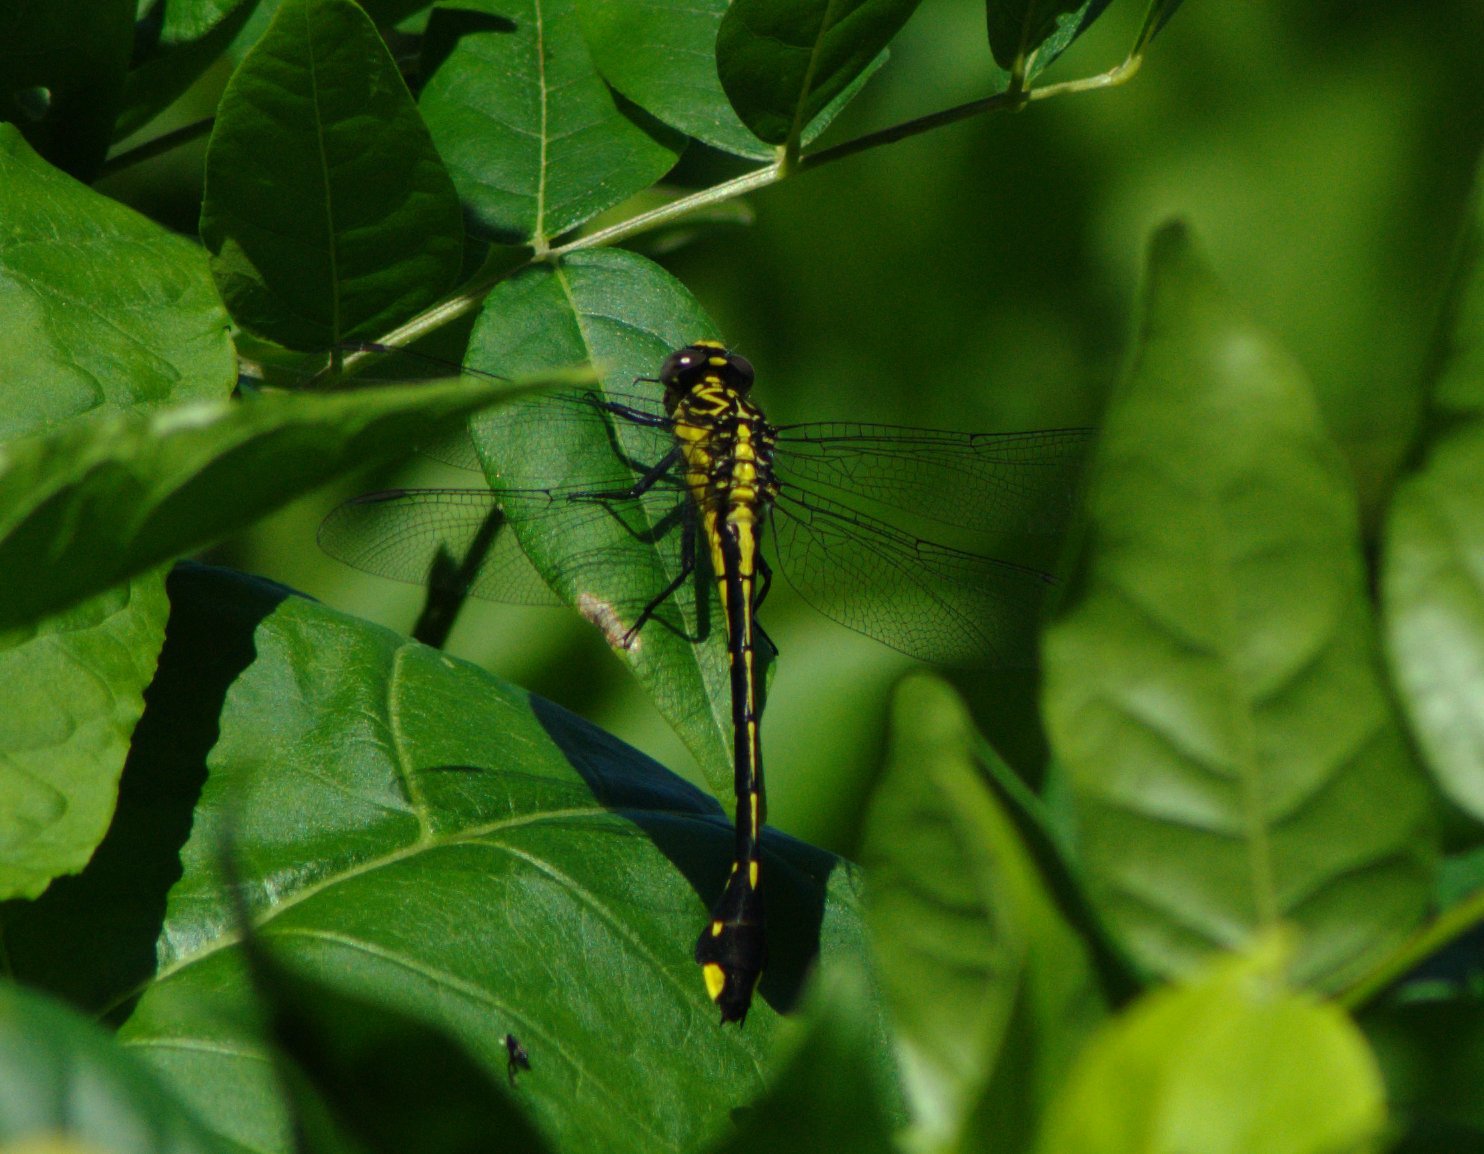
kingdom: Animalia
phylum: Arthropoda
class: Insecta
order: Odonata
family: Gomphidae
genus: Gomphurus
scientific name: Gomphurus vastus
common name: Cobra clubtail
